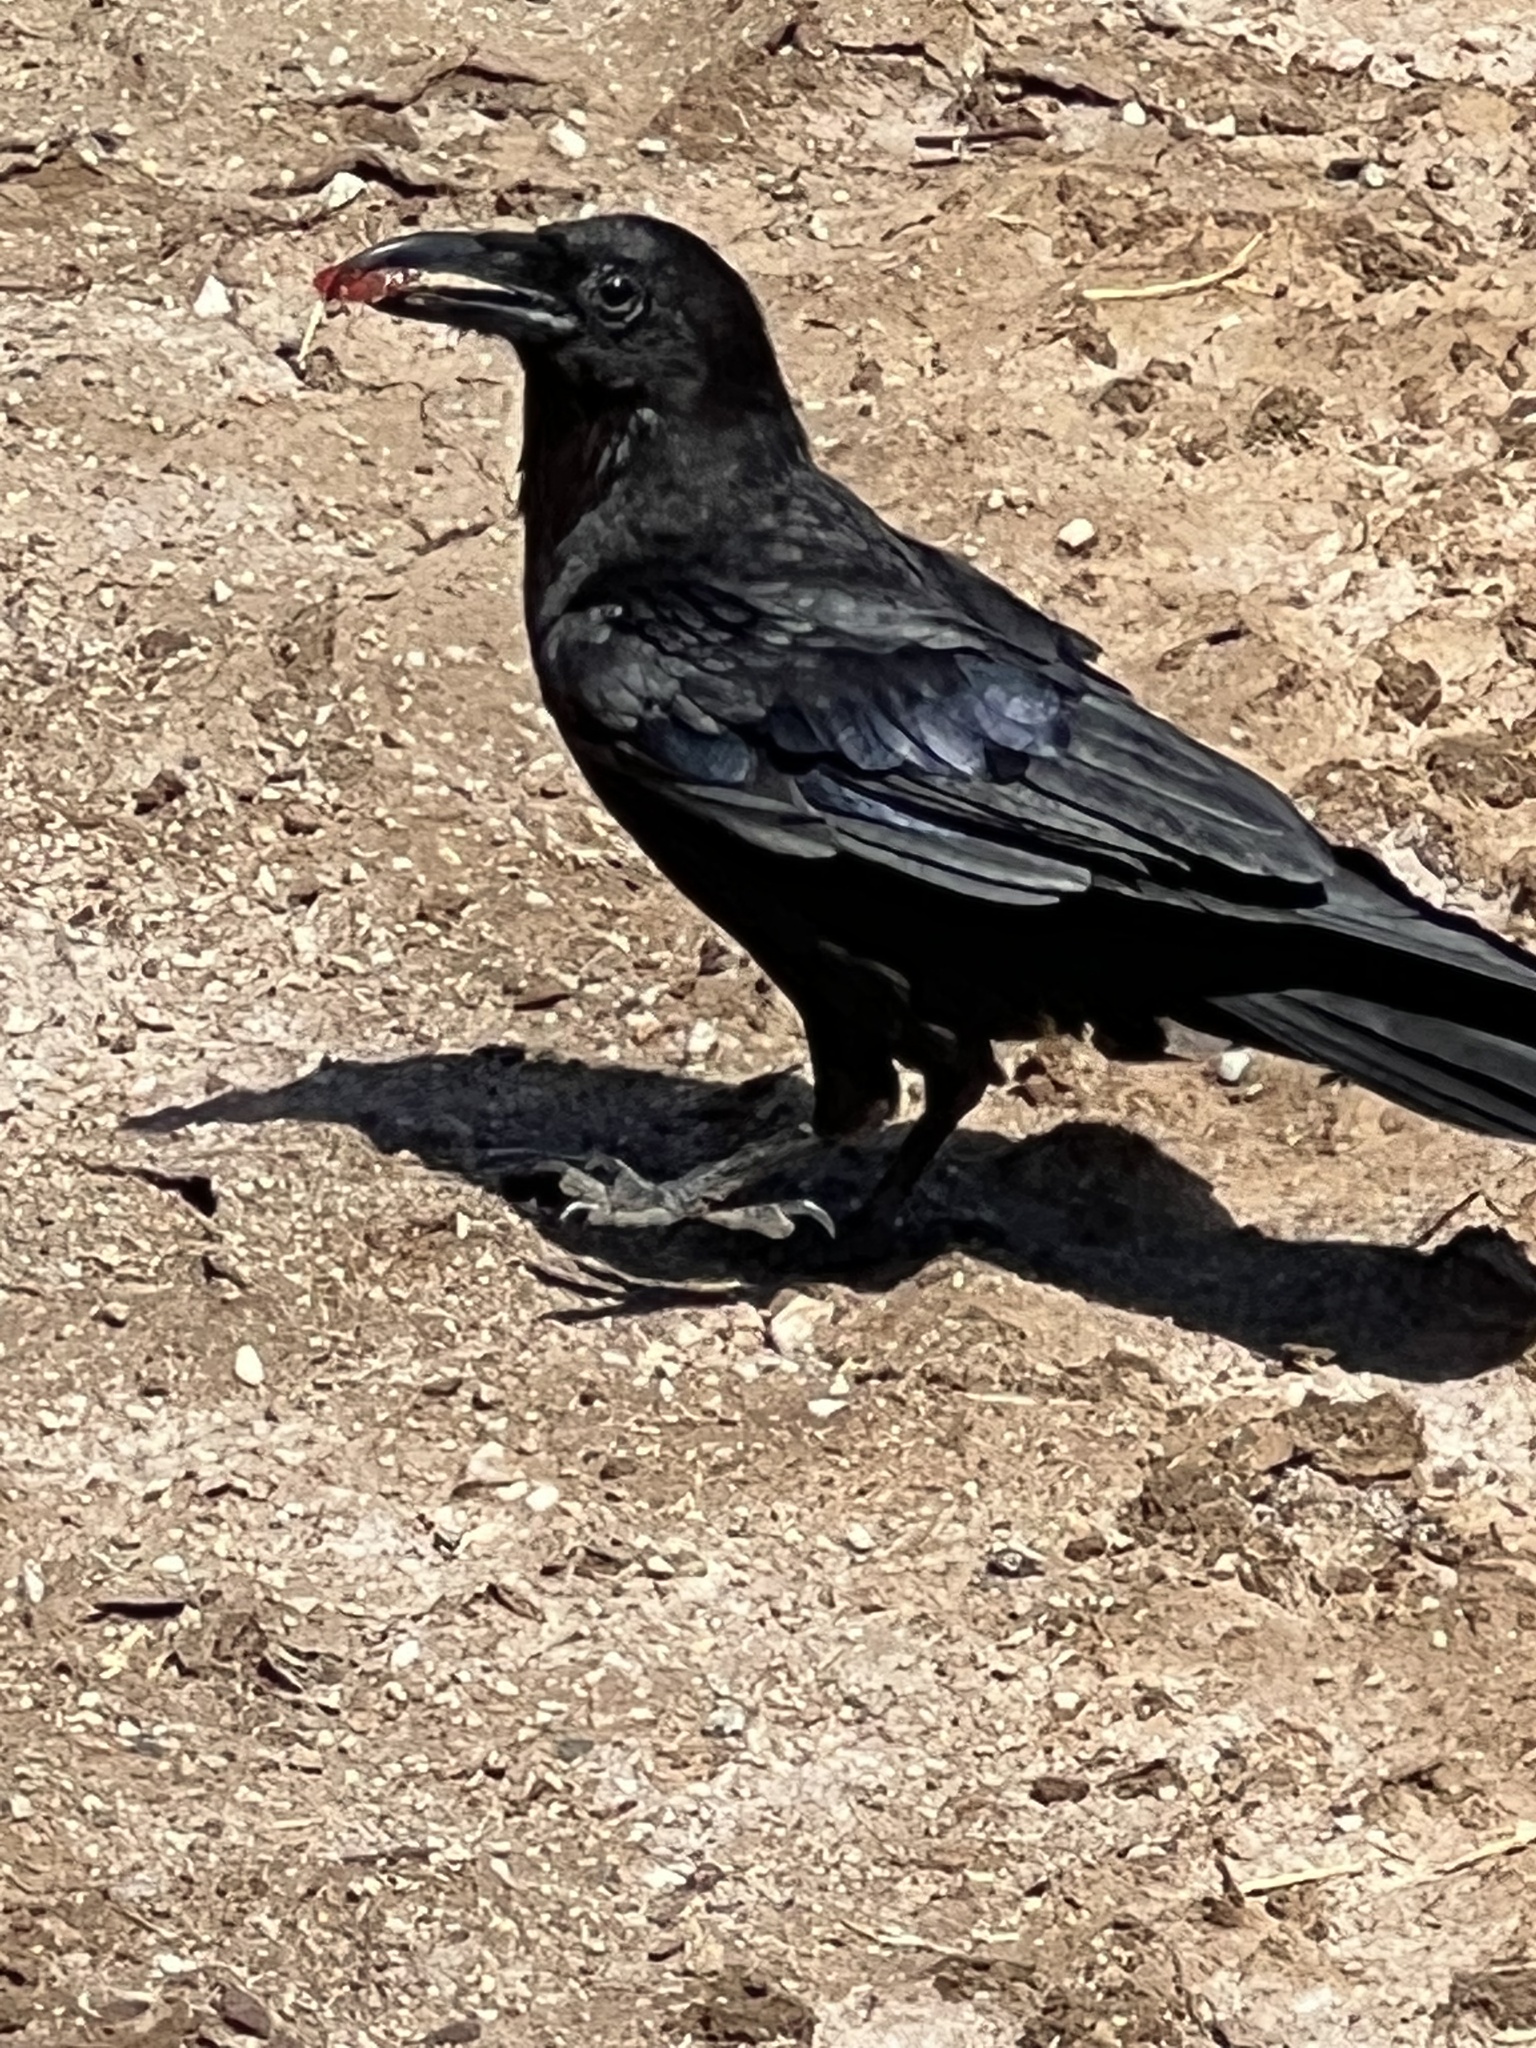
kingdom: Animalia
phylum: Chordata
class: Aves
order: Passeriformes
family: Corvidae
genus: Corvus
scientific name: Corvus corax
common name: Common raven
